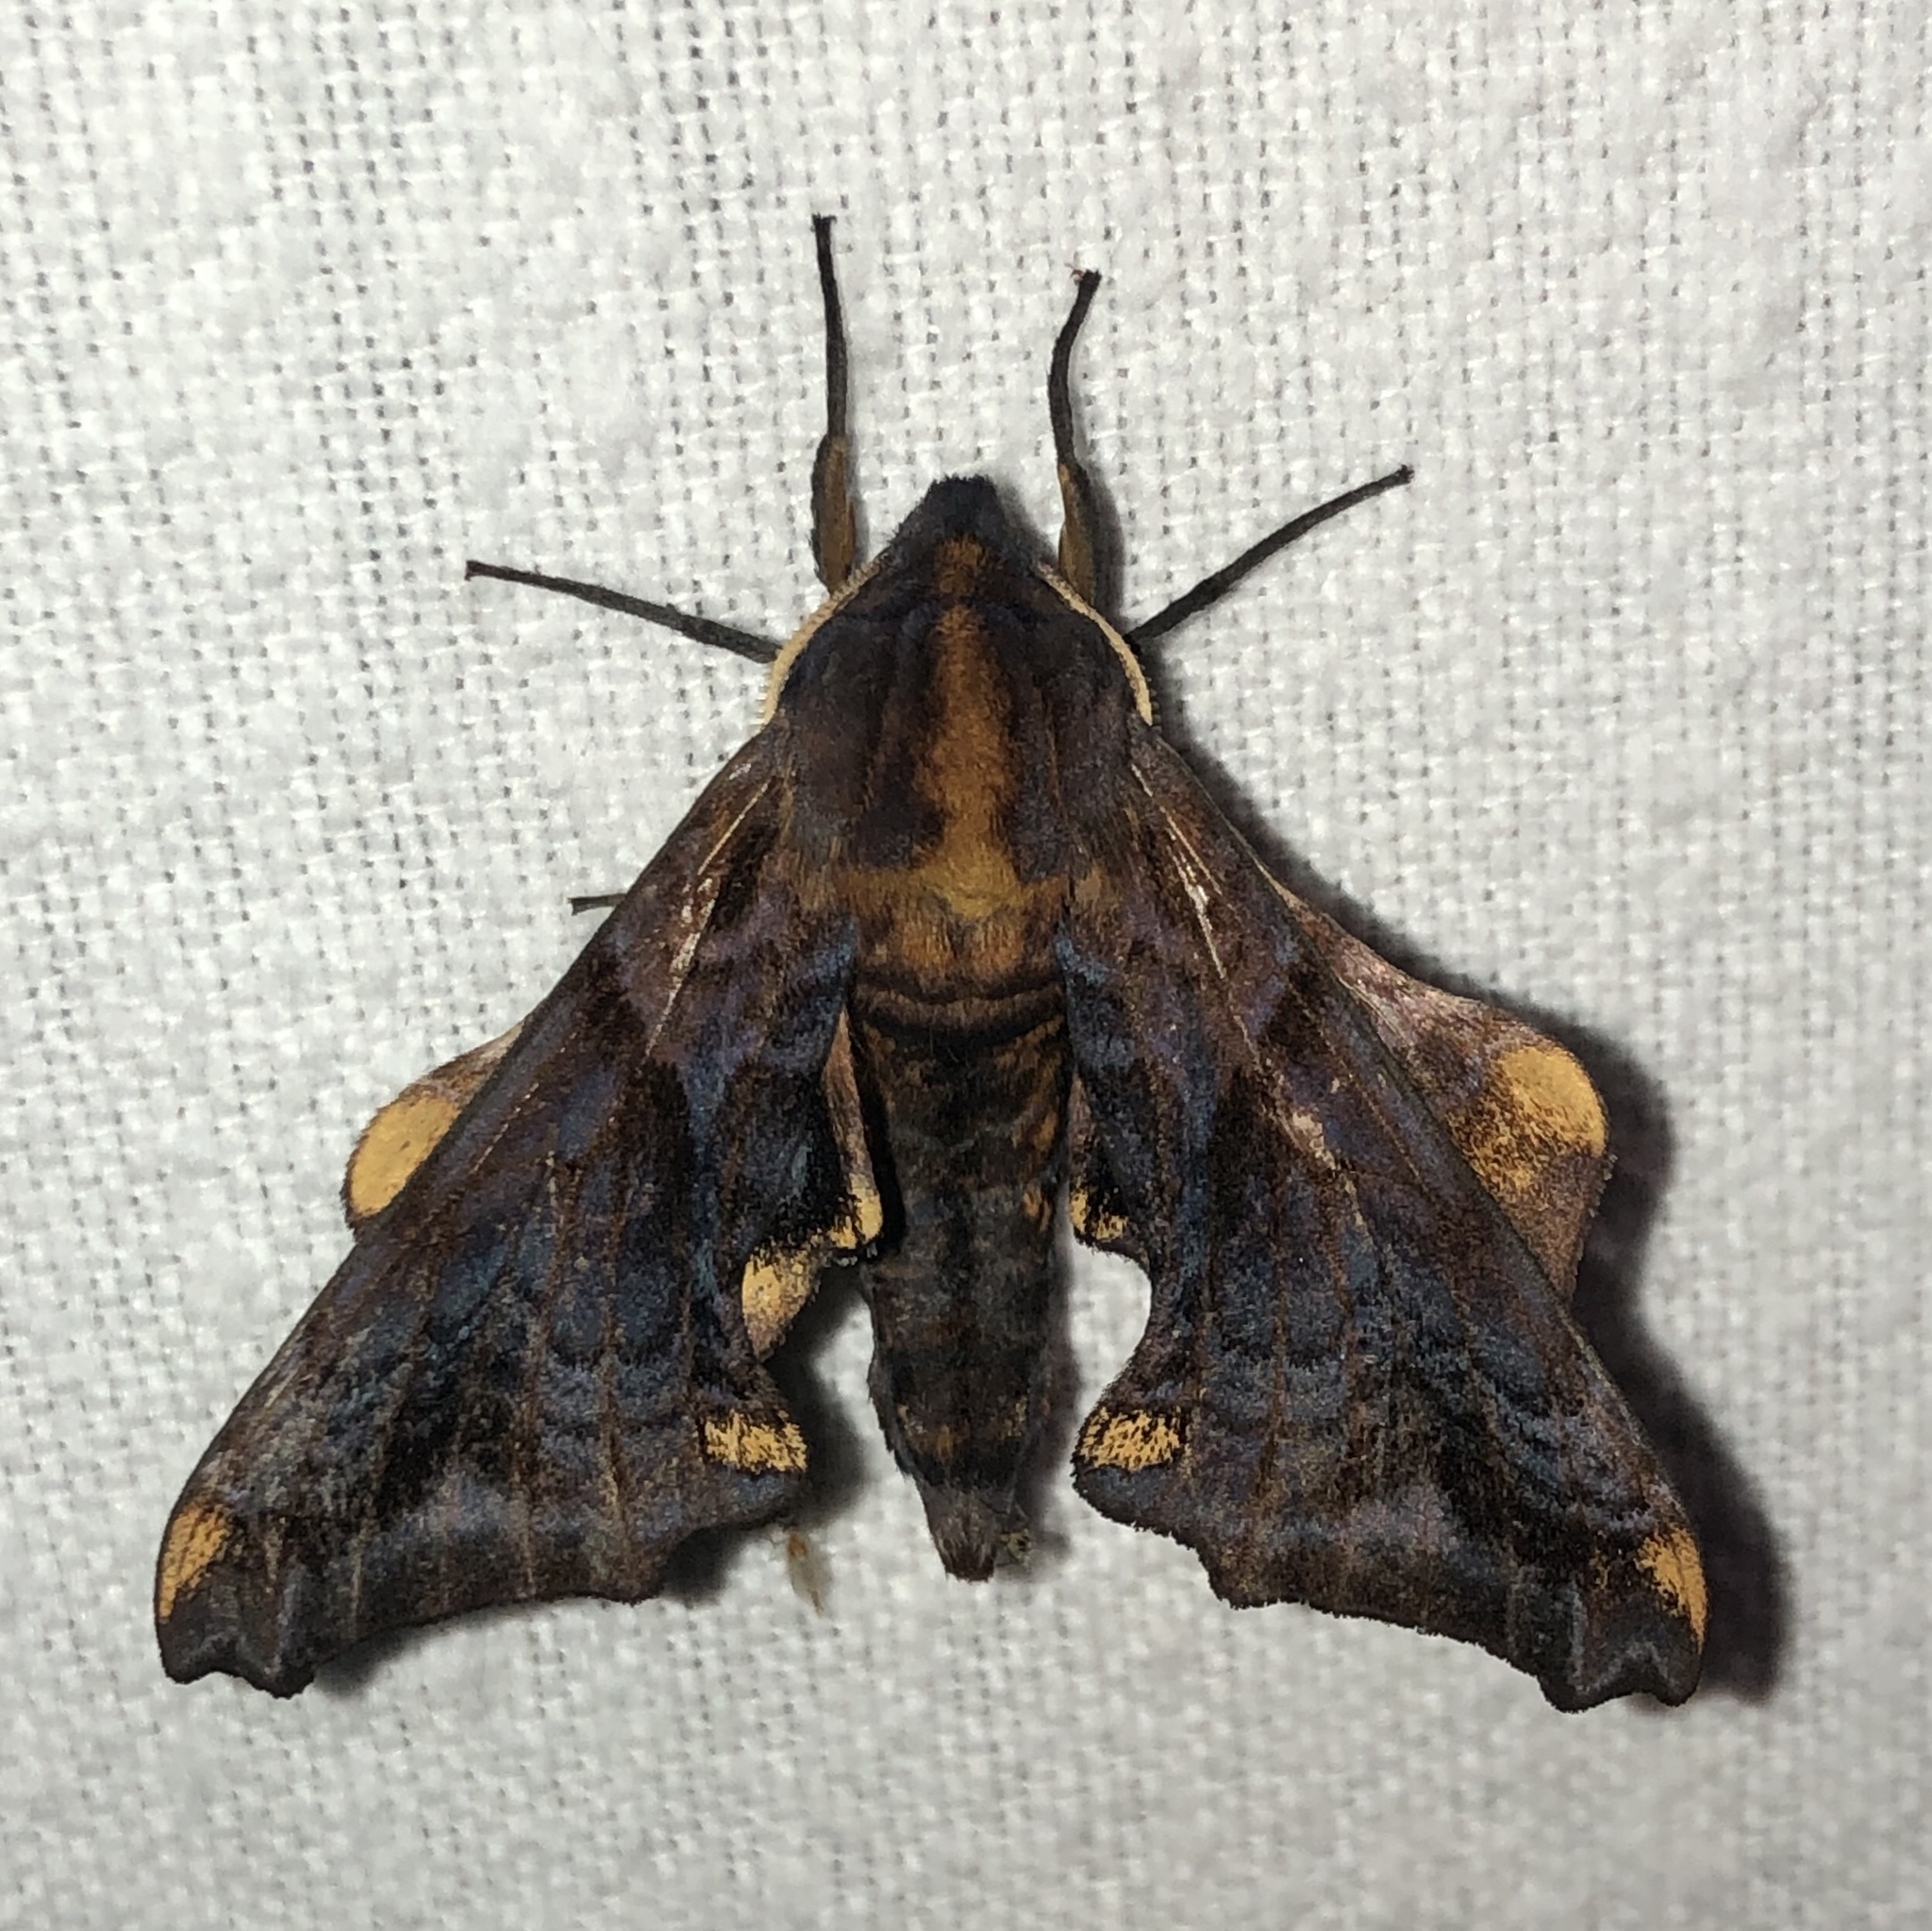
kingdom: Animalia
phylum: Arthropoda
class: Insecta
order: Lepidoptera
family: Sphingidae
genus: Paonias
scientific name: Paonias myops
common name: Small-eyed sphinx
